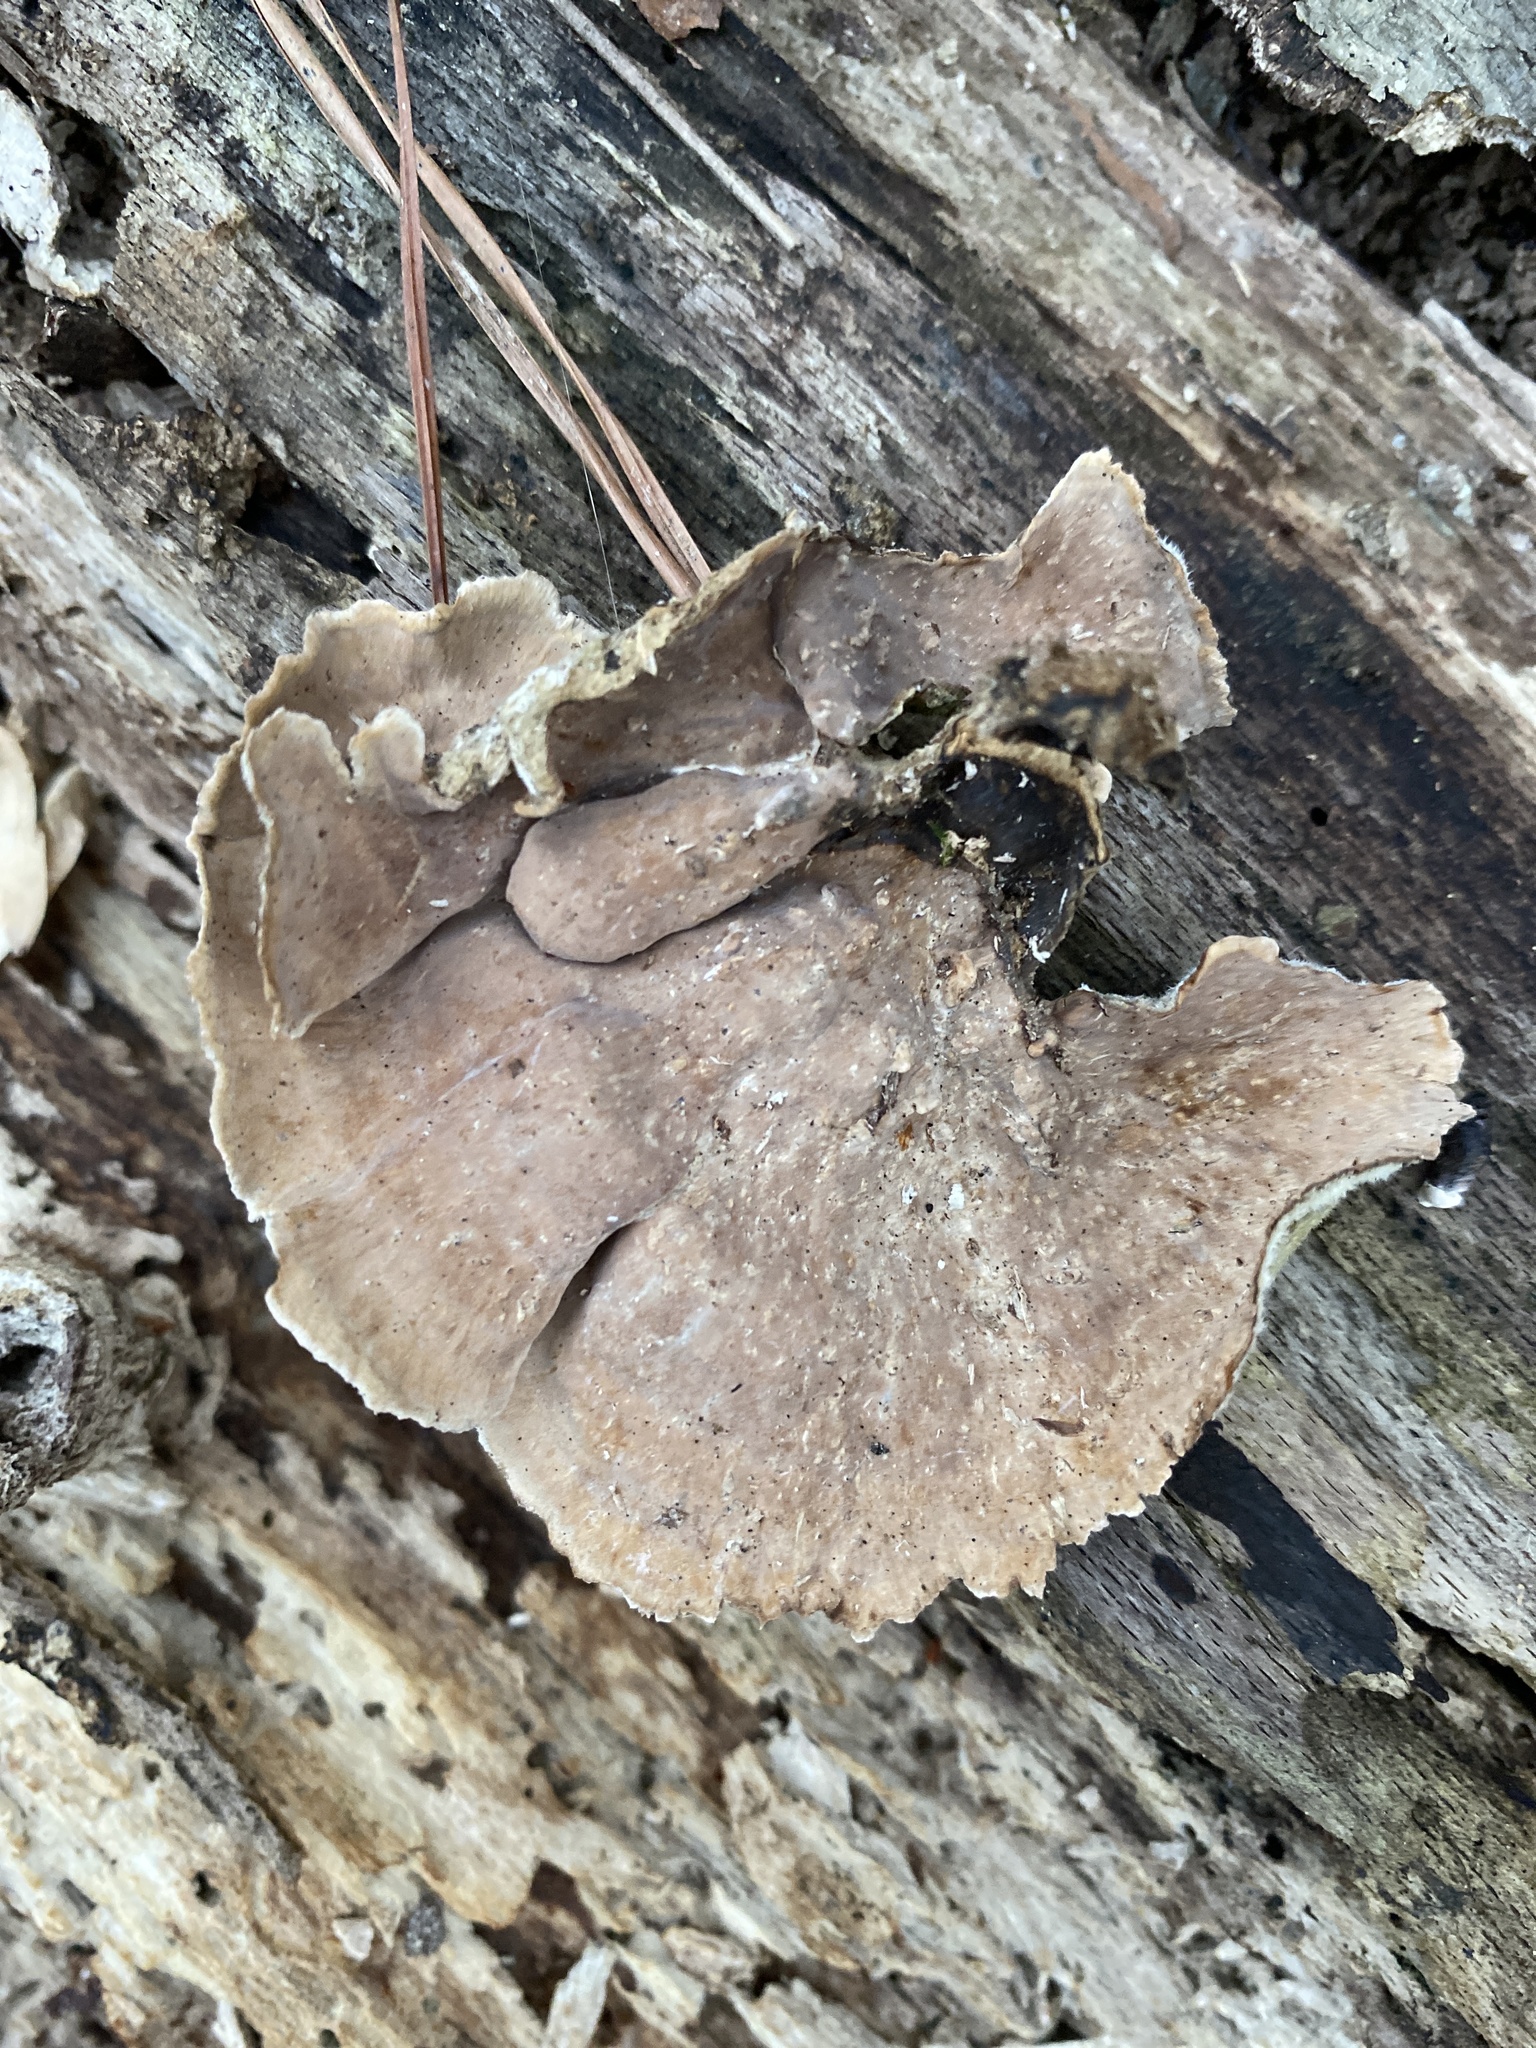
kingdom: Fungi
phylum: Basidiomycota
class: Agaricomycetes
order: Russulales
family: Stereaceae
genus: Stereum
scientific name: Stereum ostrea
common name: False turkeytail
